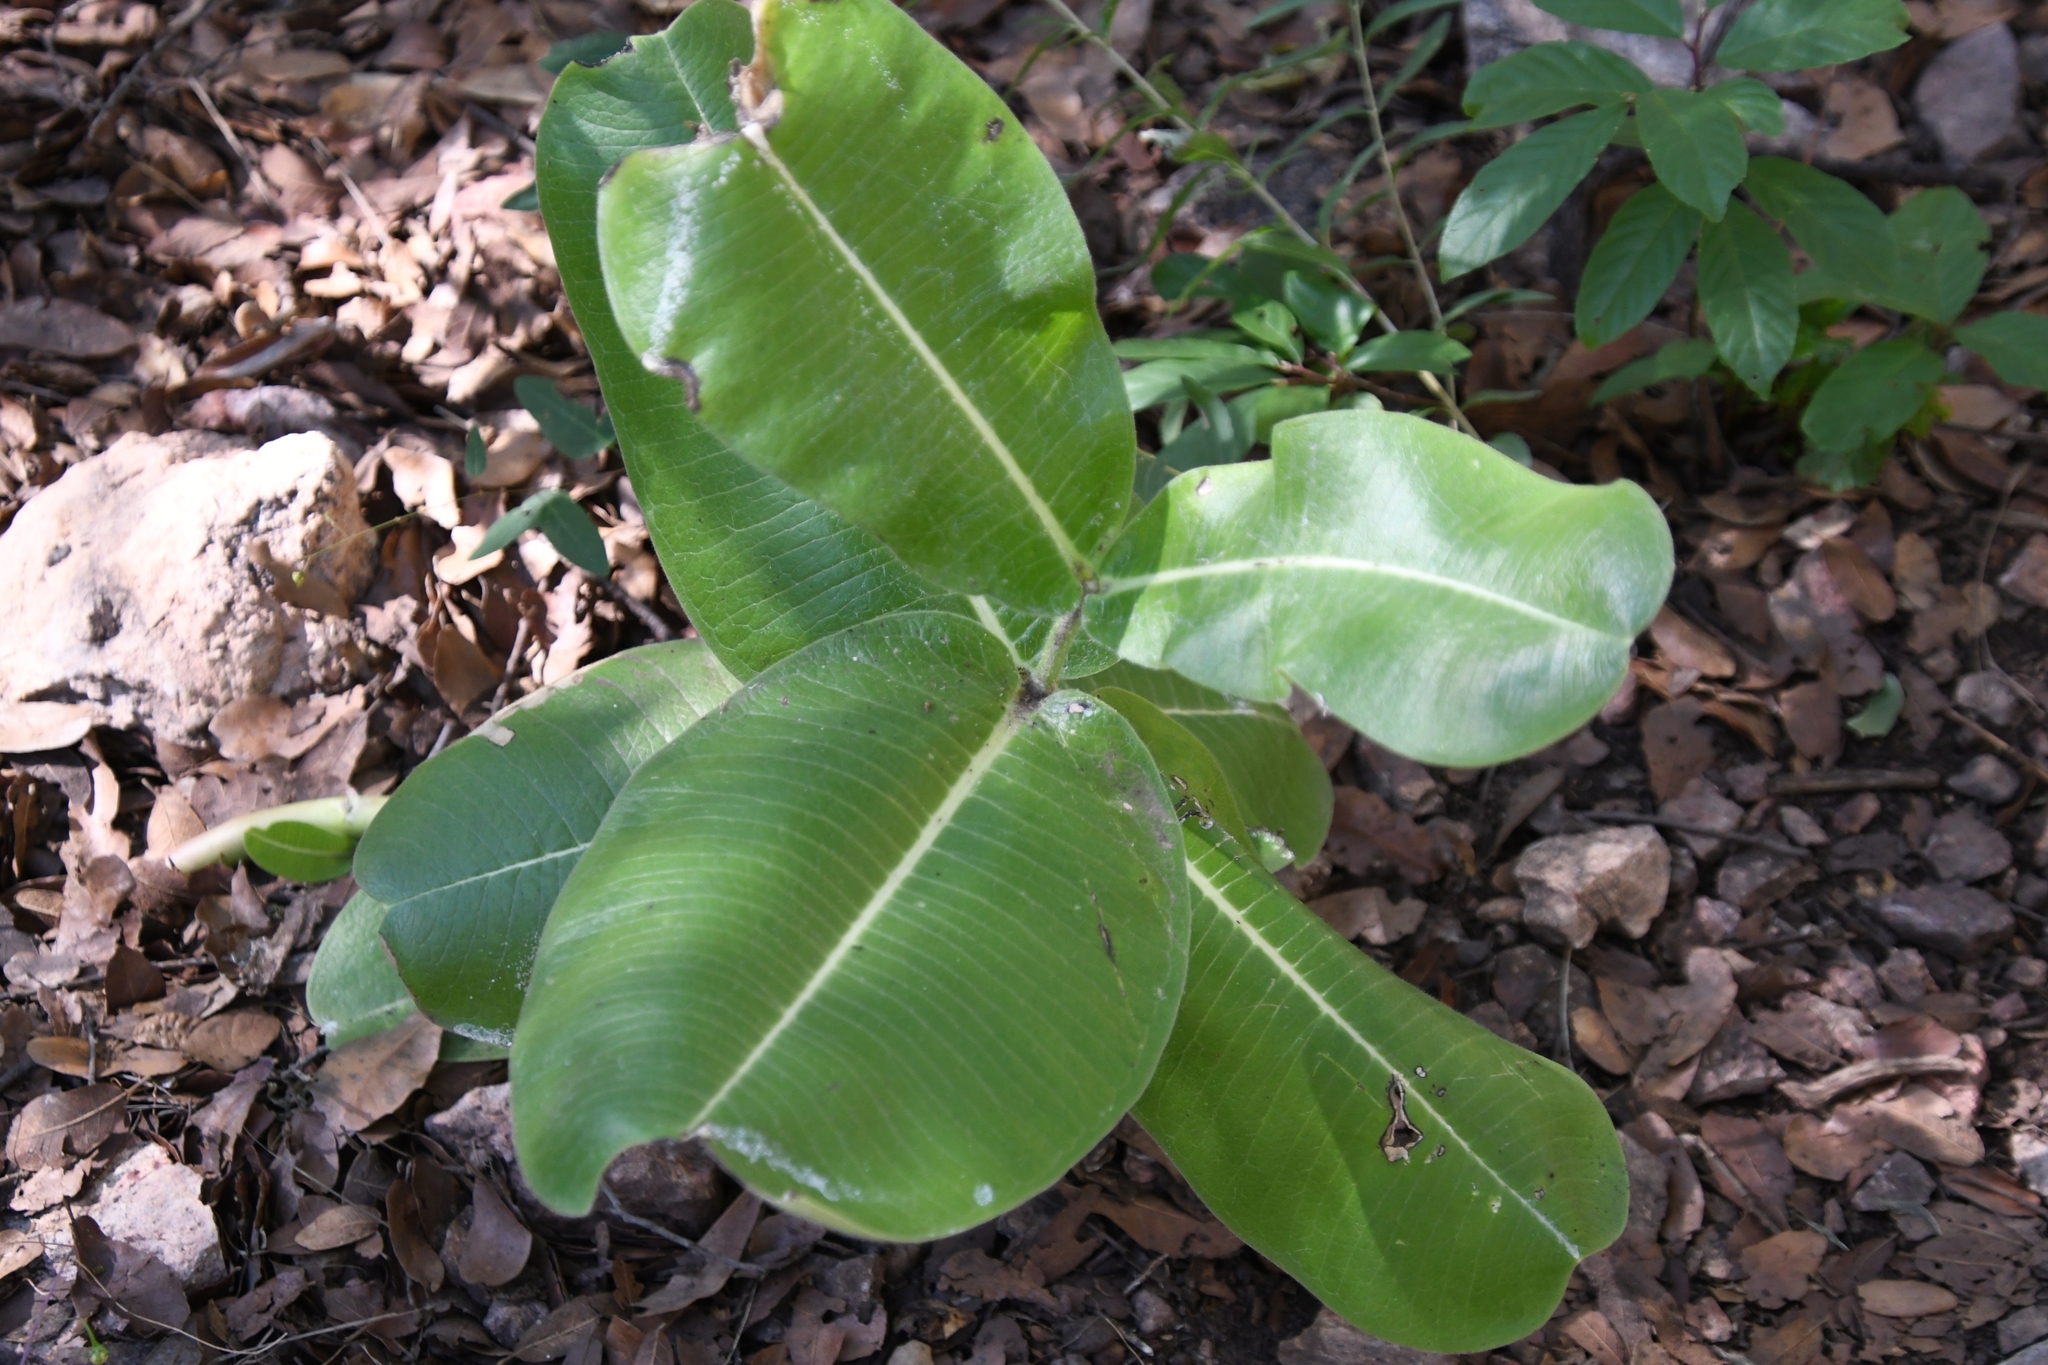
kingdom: Plantae
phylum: Tracheophyta
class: Magnoliopsida
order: Gentianales
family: Apocynaceae
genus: Asclepias
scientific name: Asclepias lemmonii
